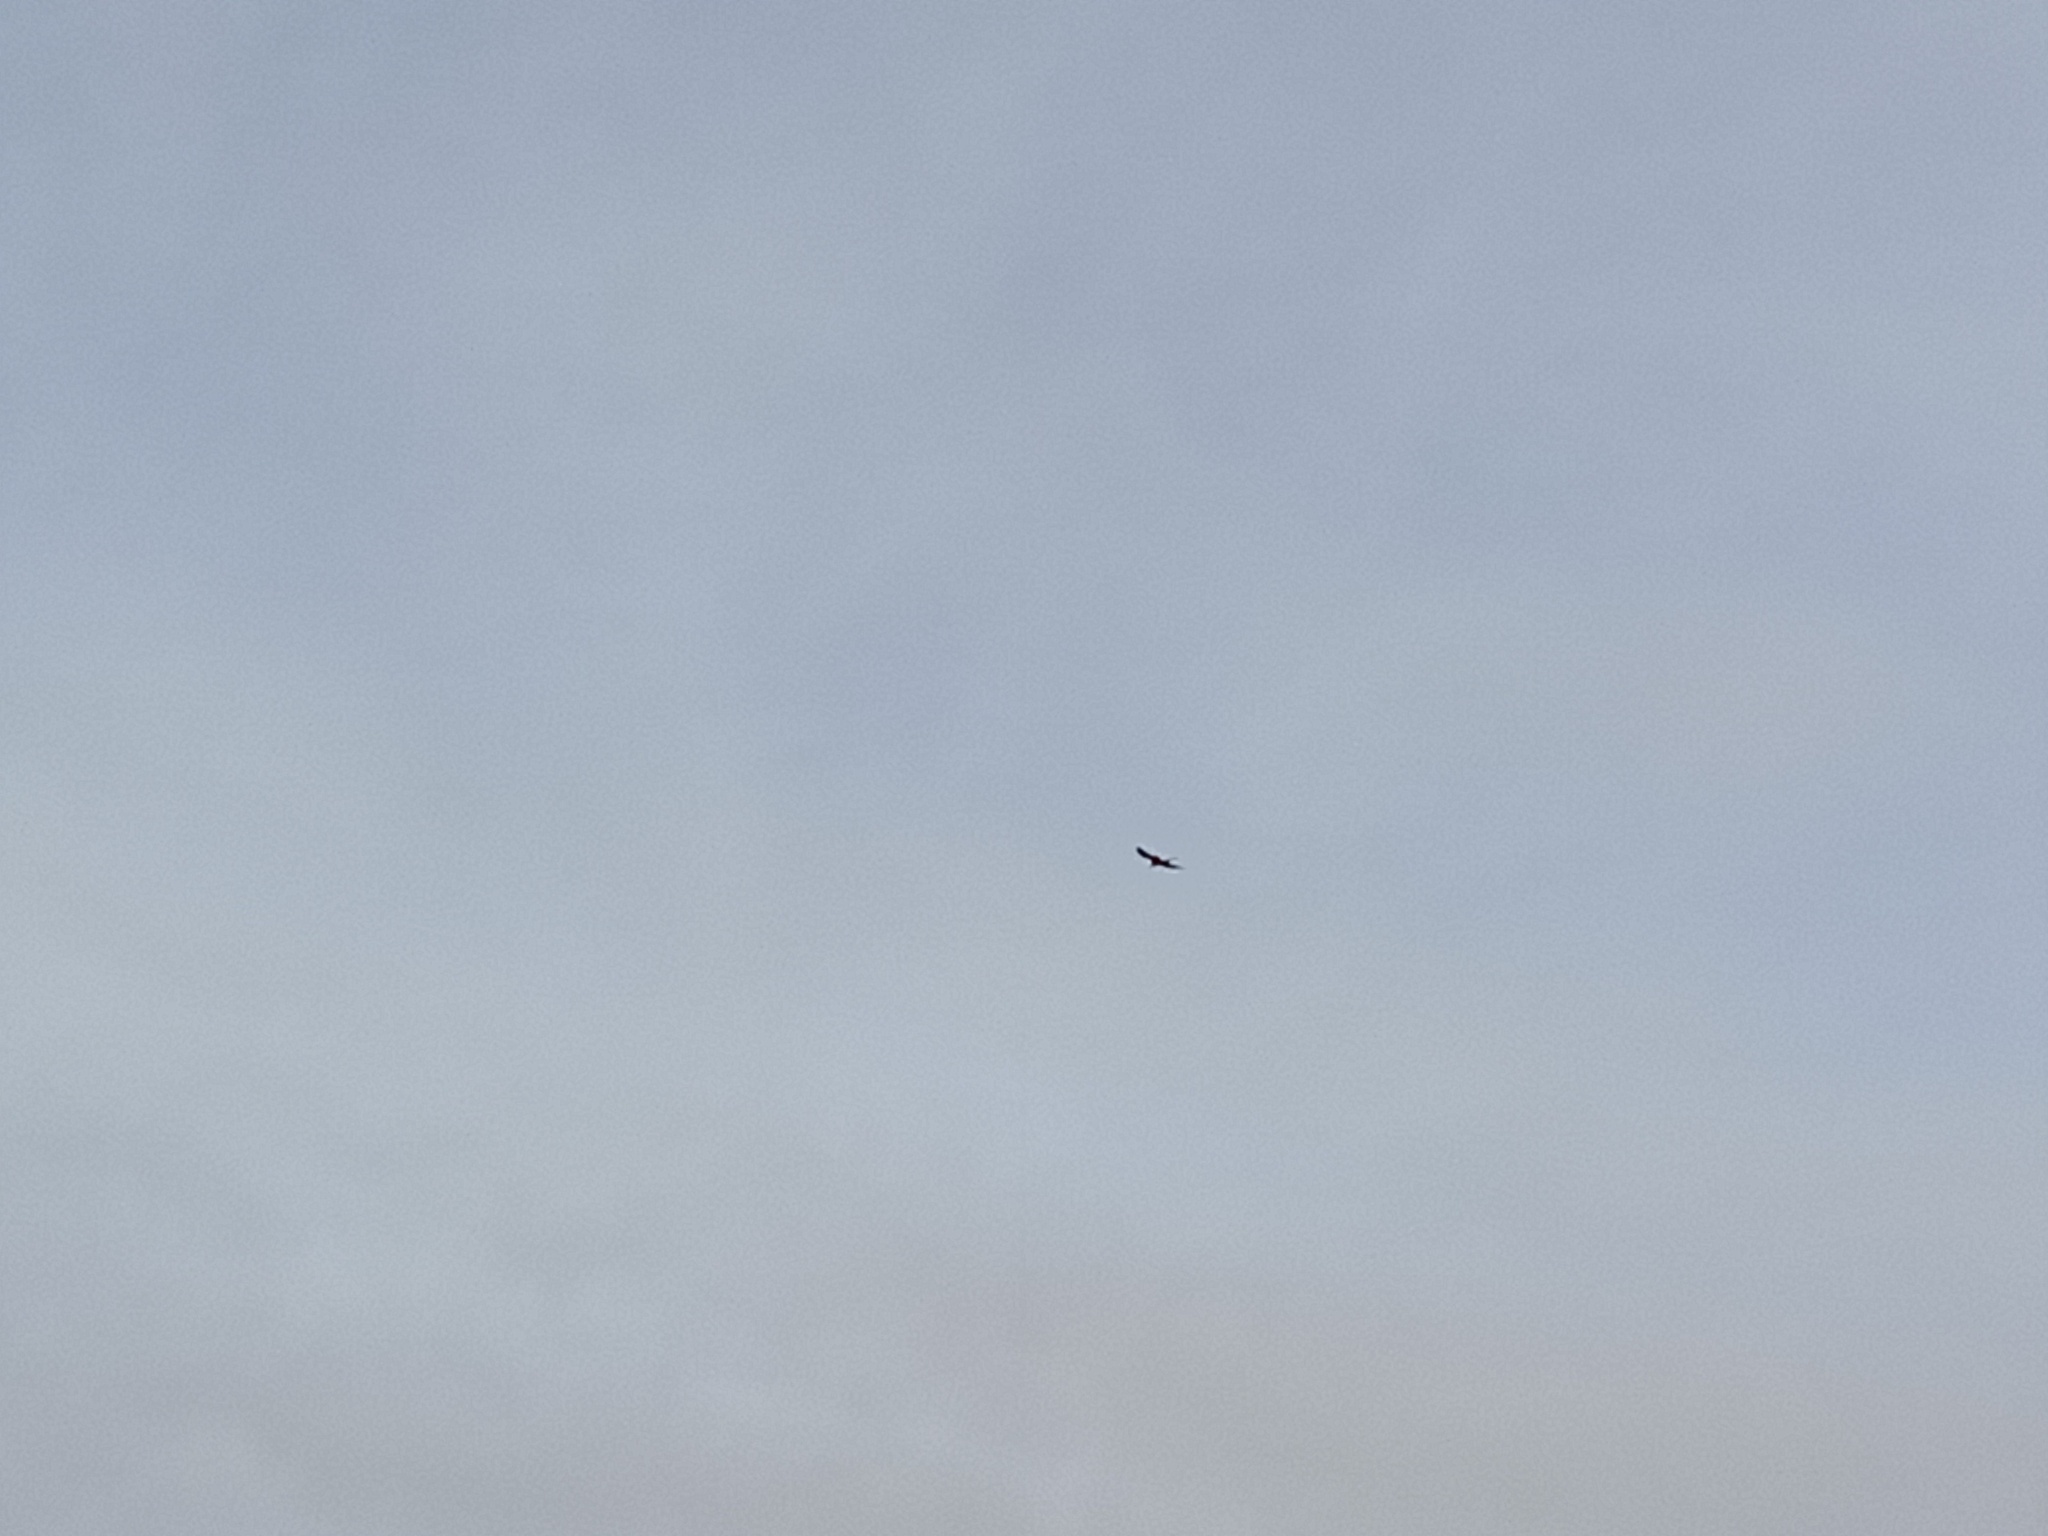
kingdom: Animalia
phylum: Chordata
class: Aves
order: Accipitriformes
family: Accipitridae
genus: Milvus
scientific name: Milvus milvus
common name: Red kite
